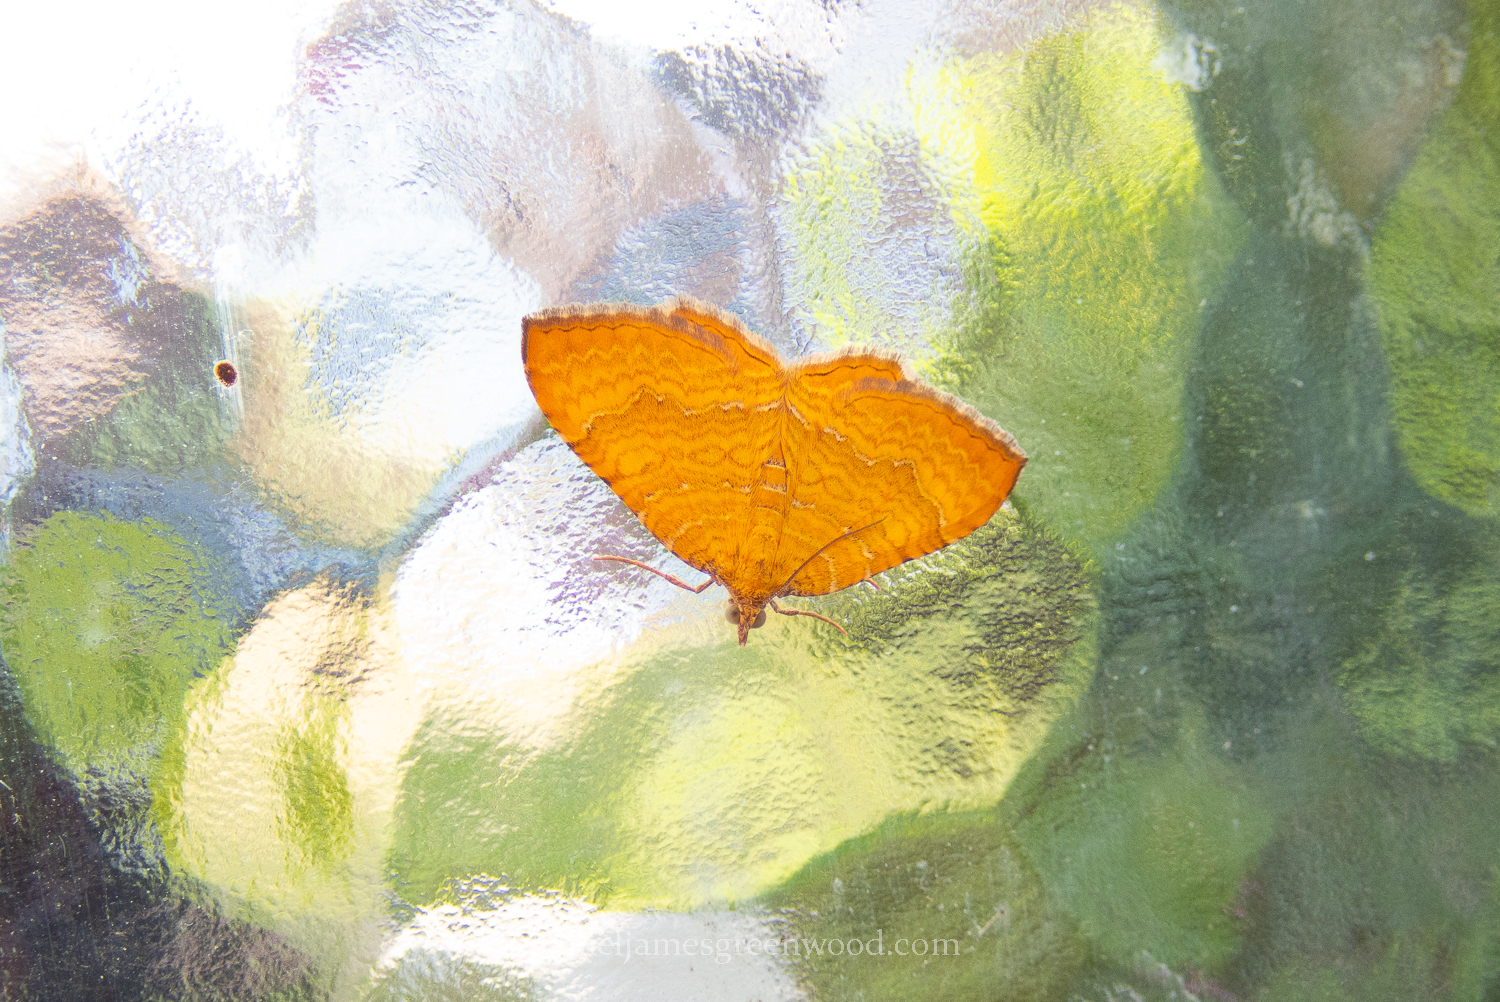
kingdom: Animalia
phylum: Arthropoda
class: Insecta
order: Lepidoptera
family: Geometridae
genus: Camptogramma
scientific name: Camptogramma bilineata
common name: Yellow shell
